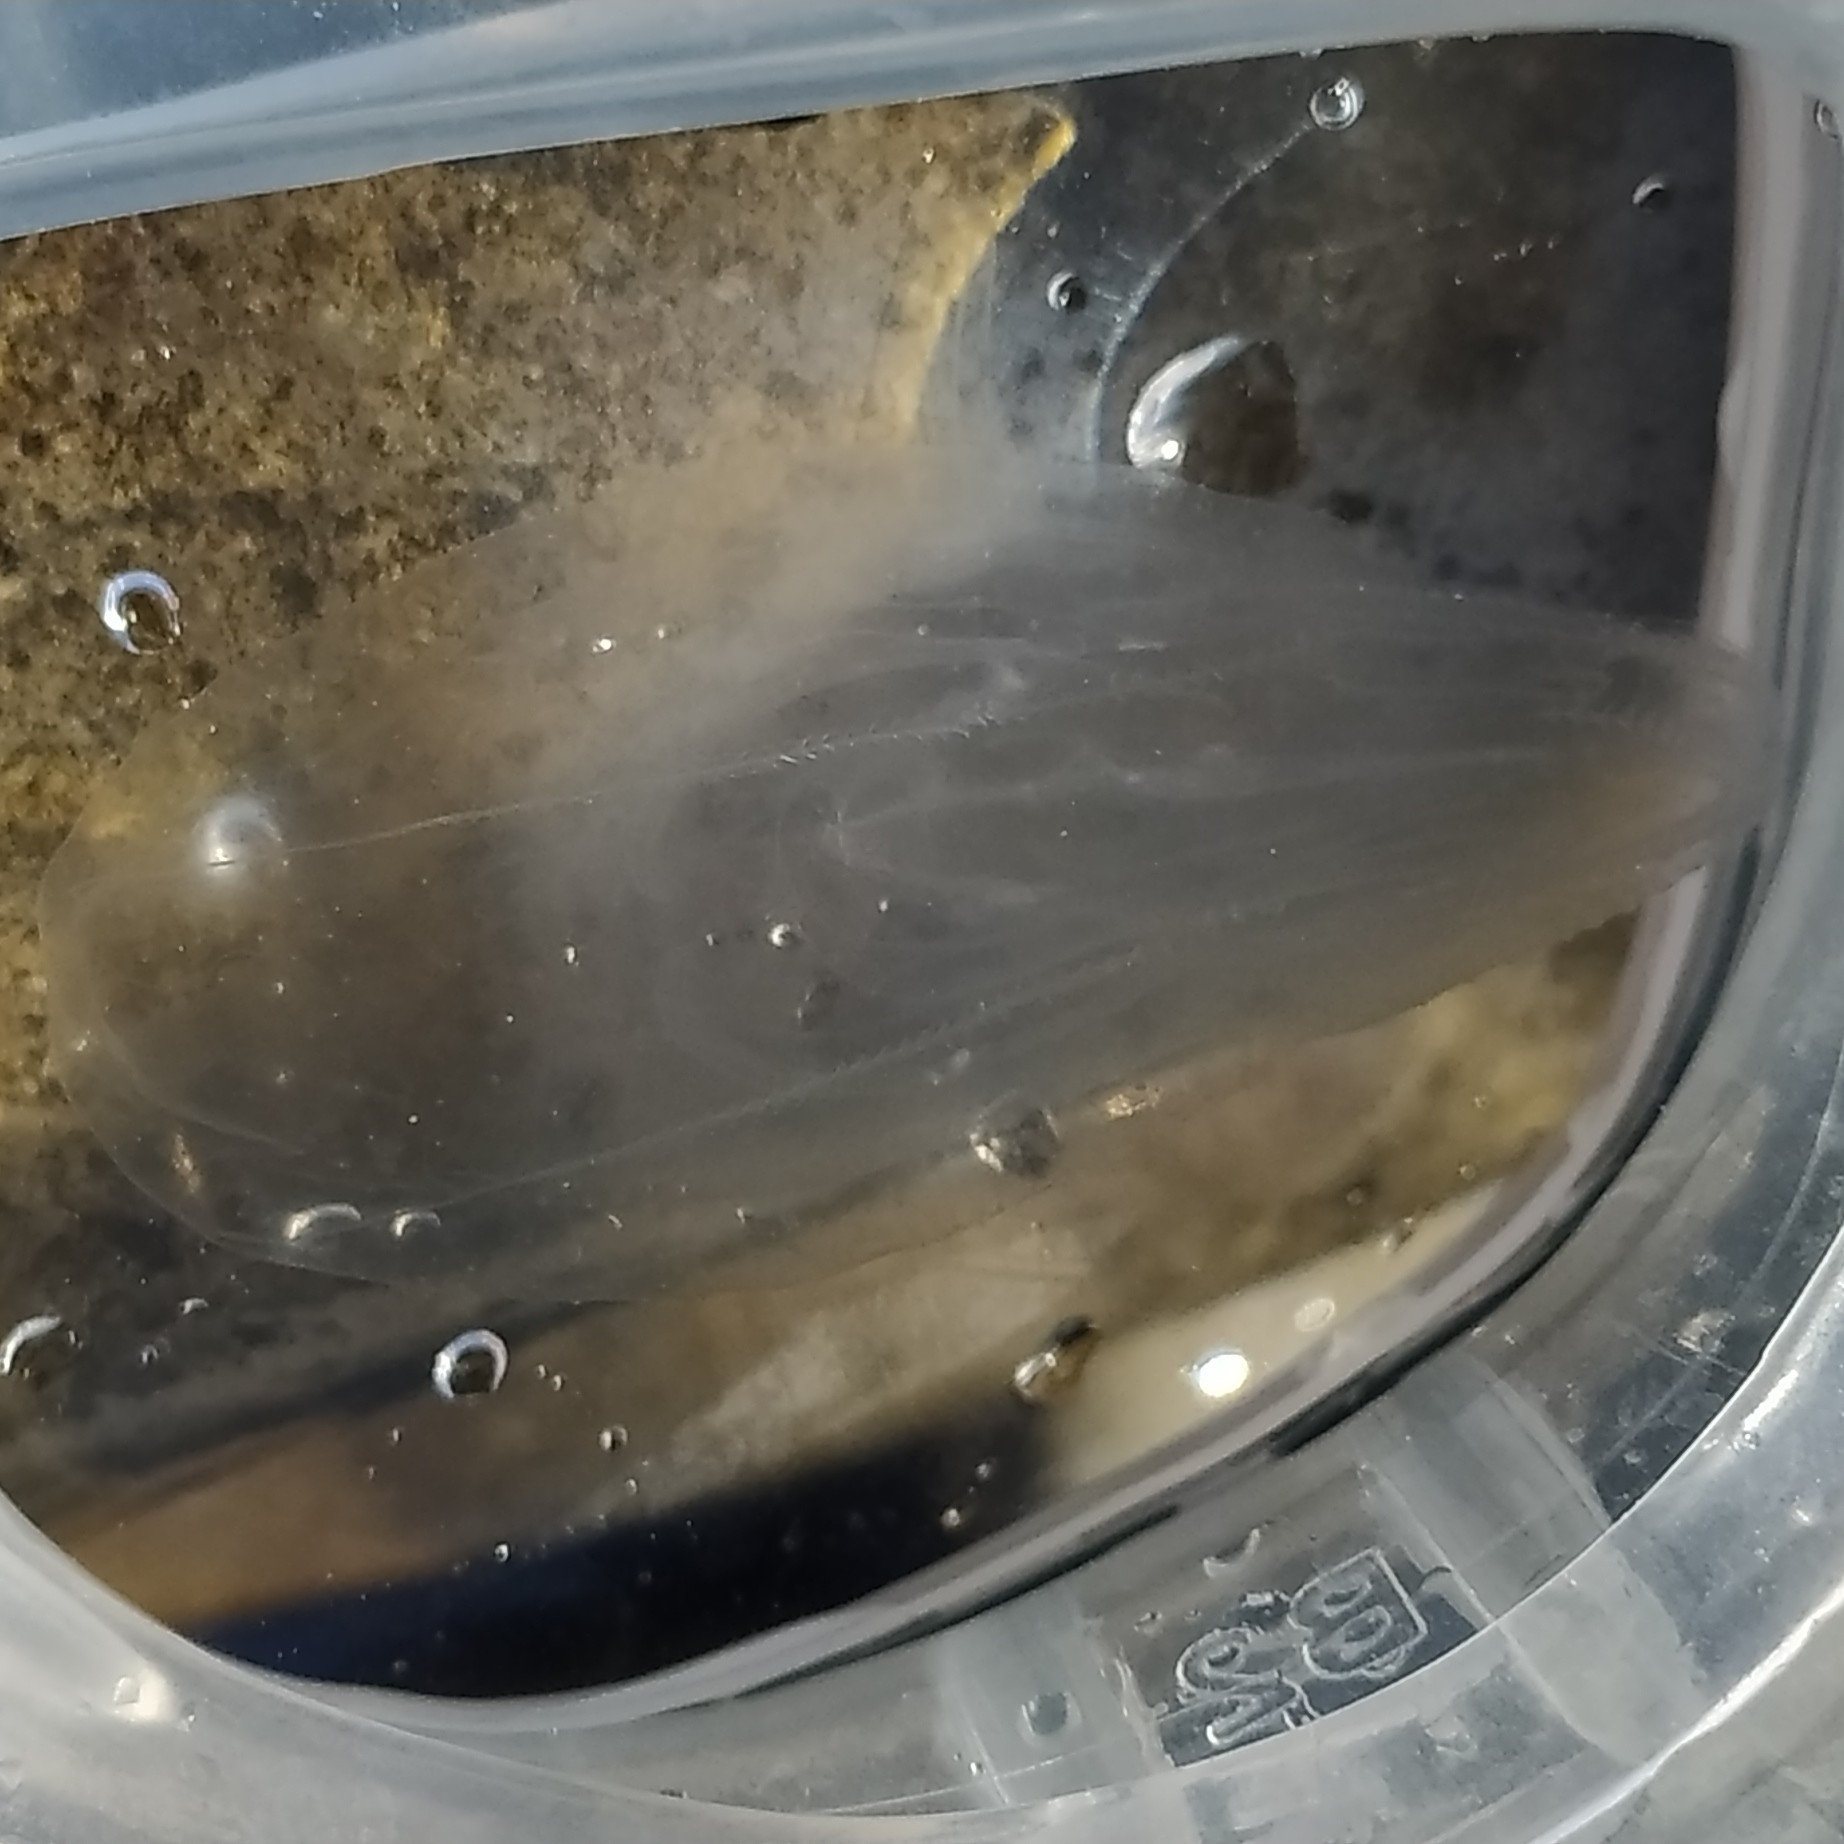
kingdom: Animalia
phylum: Ctenophora
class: Tentaculata
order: Lobata
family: Bolinopsidae
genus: Mnemiopsis
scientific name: Mnemiopsis leidyi
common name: American comb jelly
